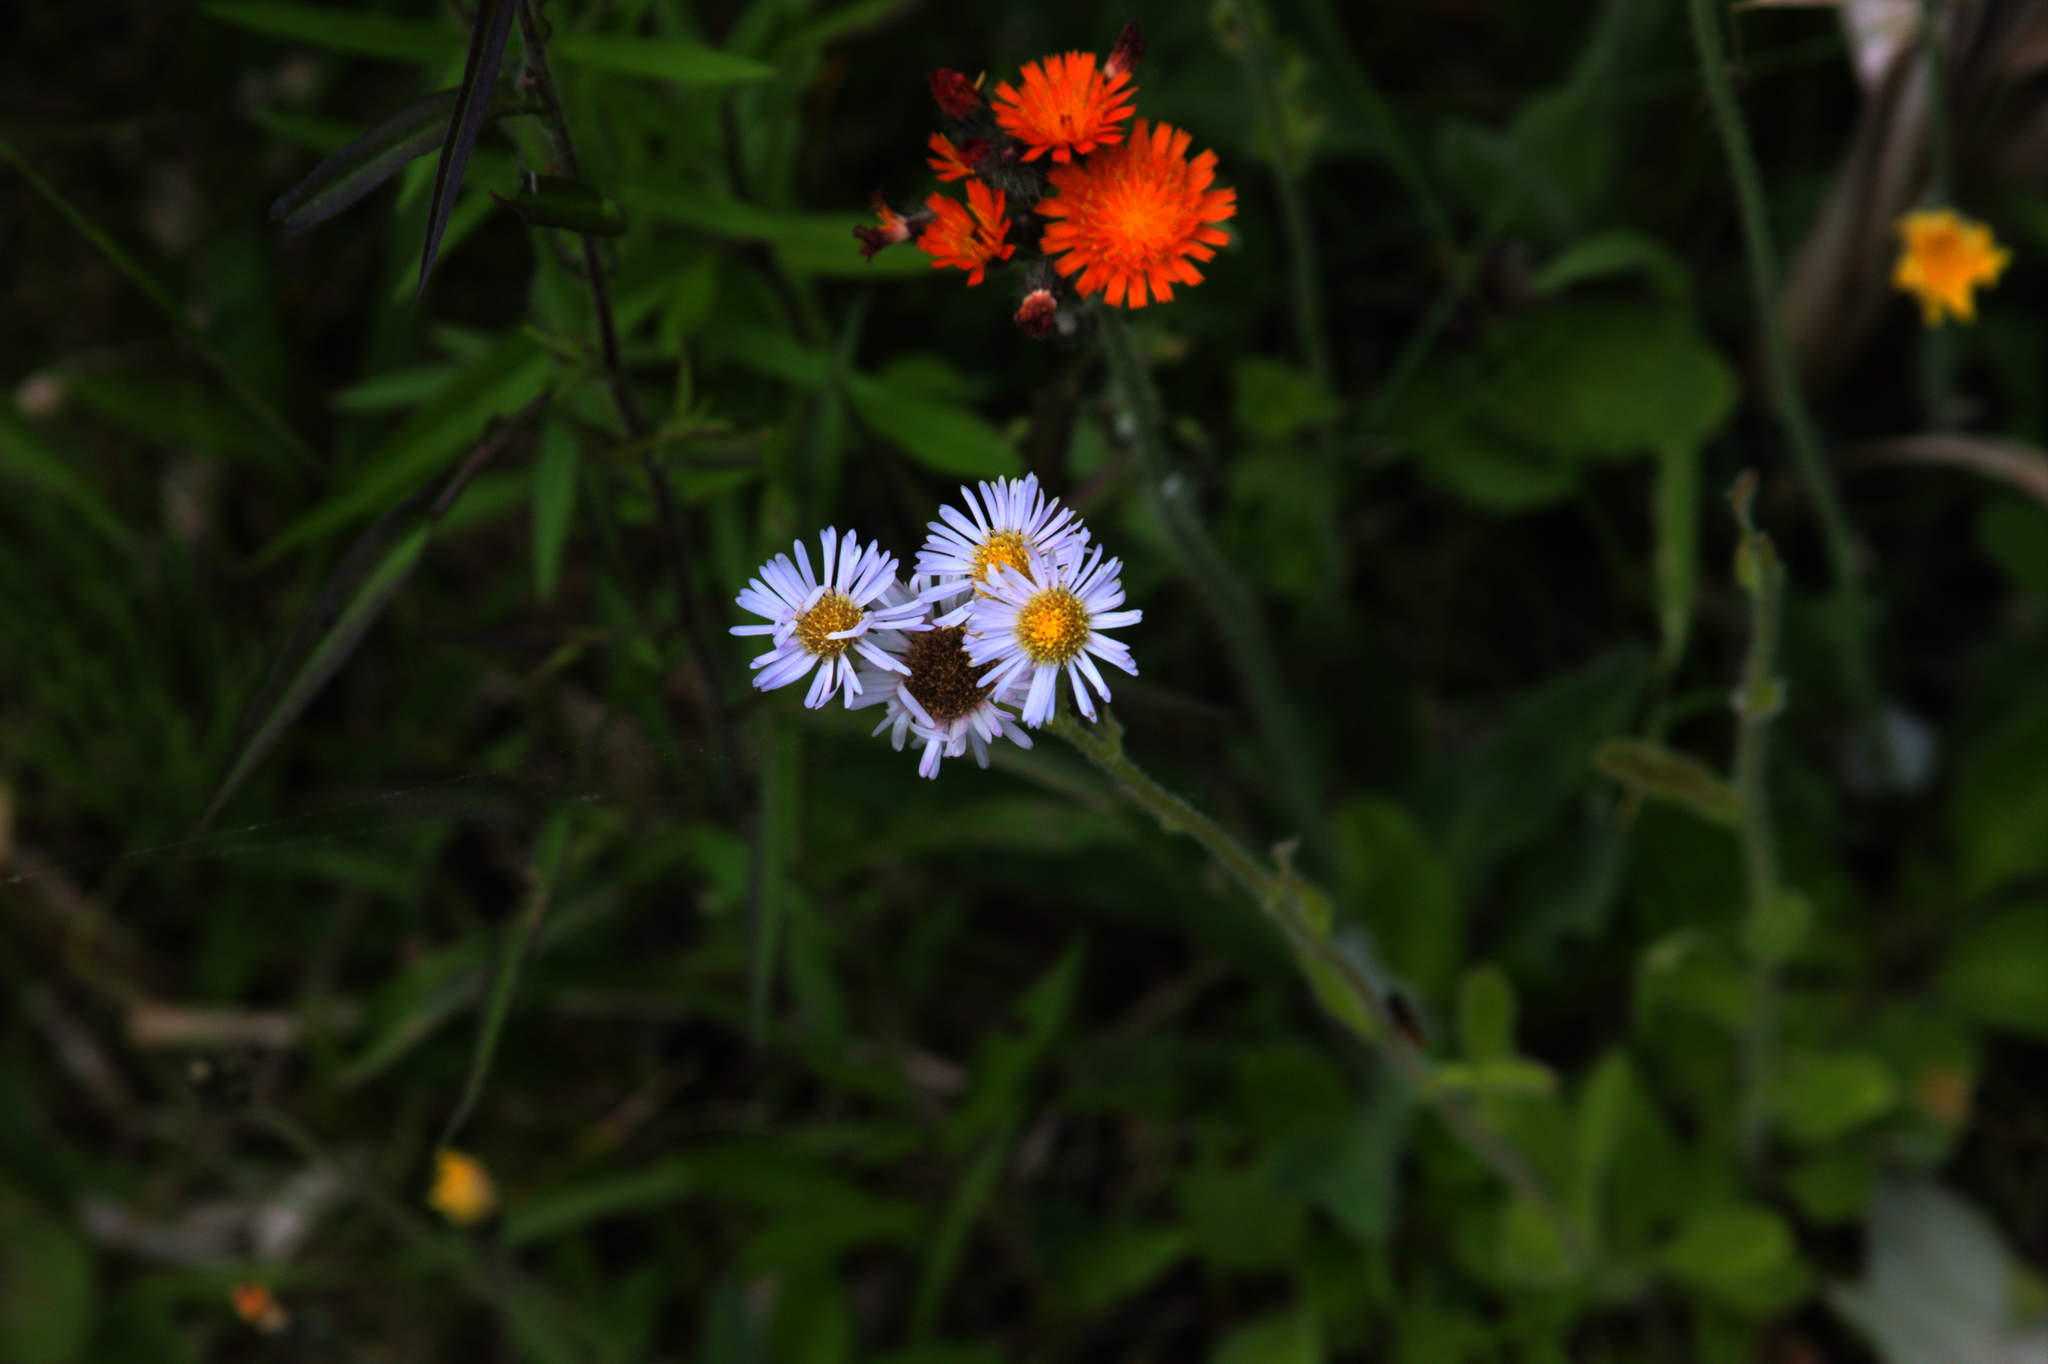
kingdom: Plantae
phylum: Tracheophyta
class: Magnoliopsida
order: Asterales
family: Asteraceae
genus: Erigeron
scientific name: Erigeron pulchellus
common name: Hairy fleabane
